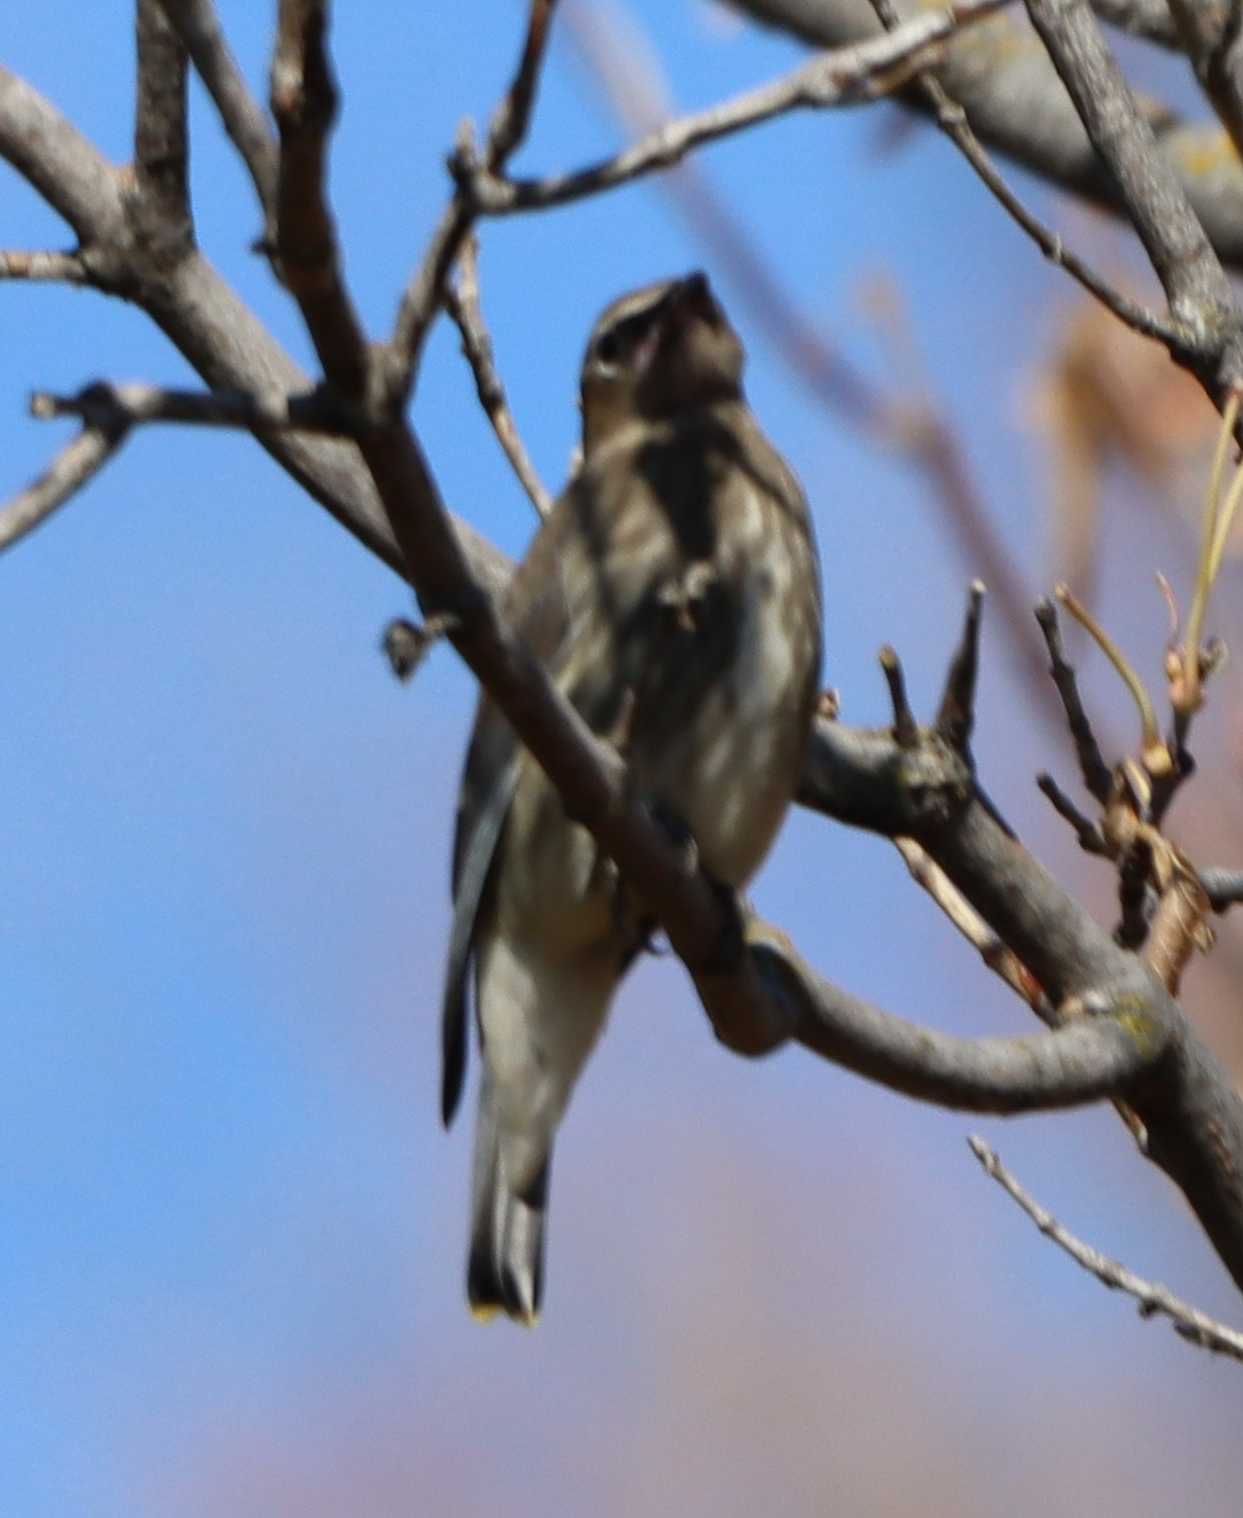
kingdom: Animalia
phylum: Chordata
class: Aves
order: Passeriformes
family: Bombycillidae
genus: Bombycilla
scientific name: Bombycilla cedrorum
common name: Cedar waxwing
